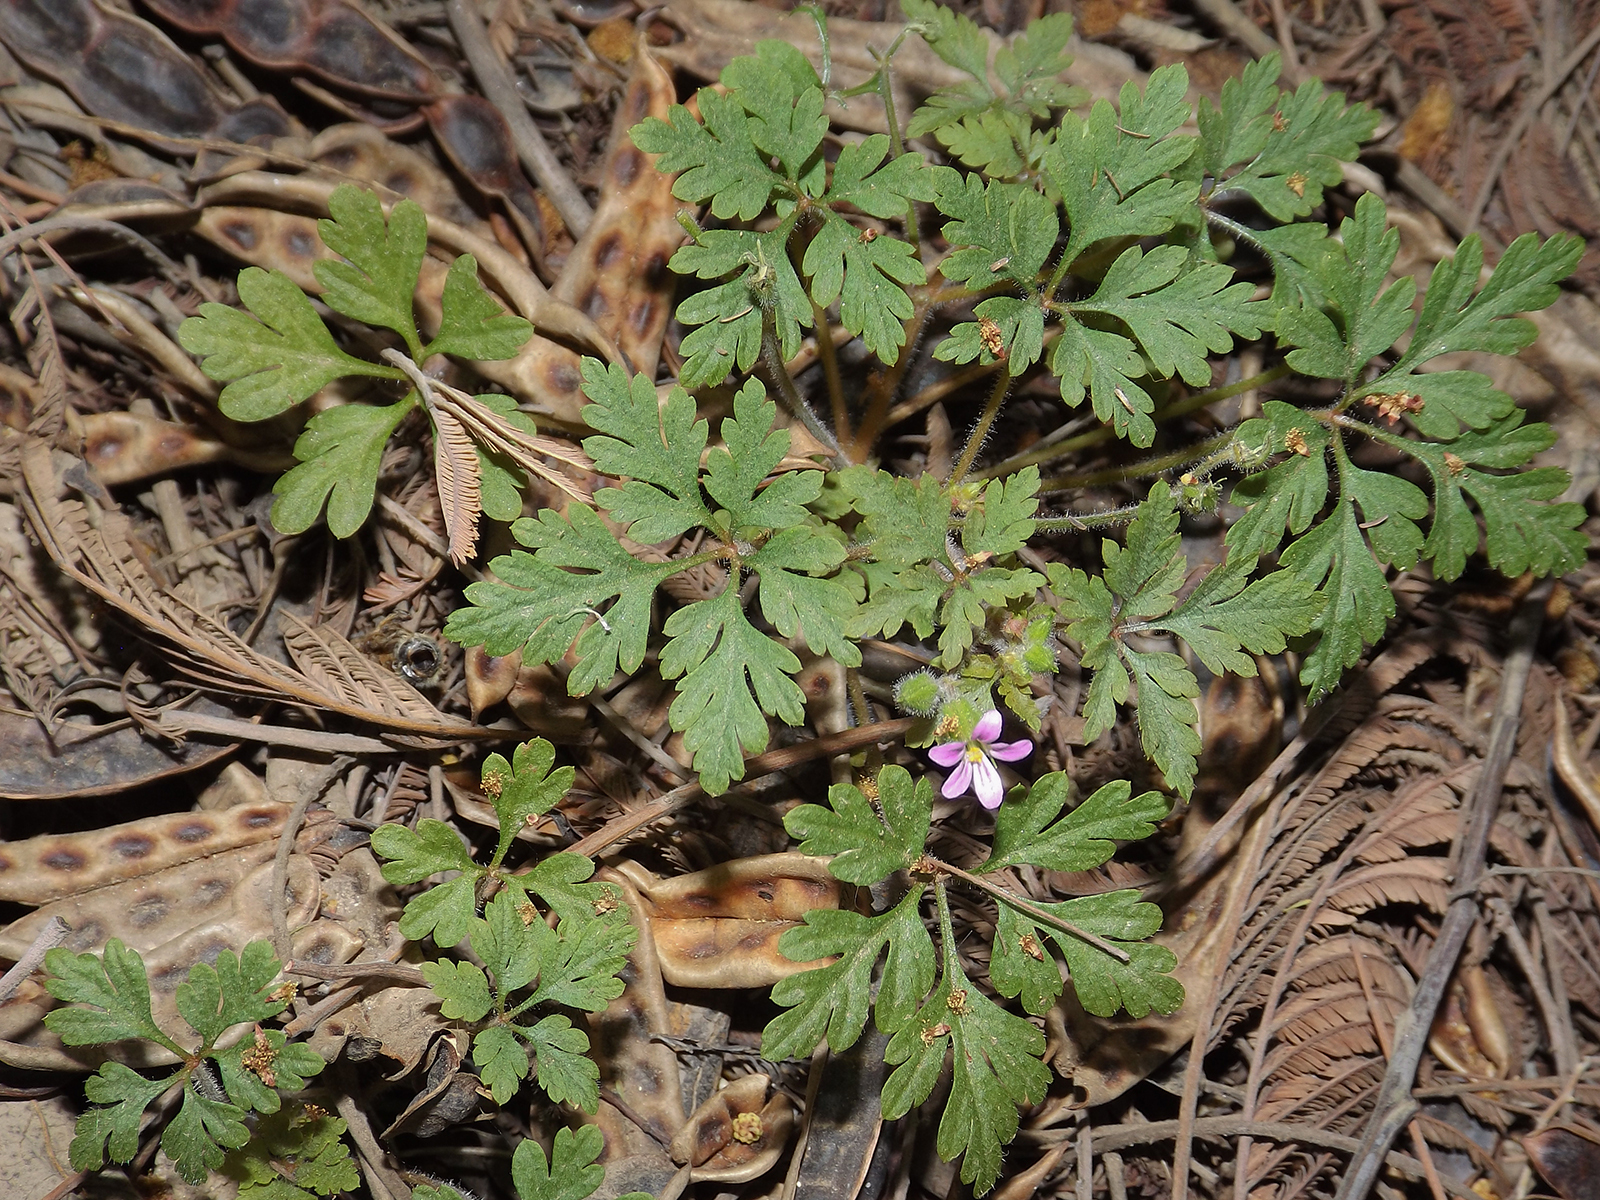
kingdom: Plantae
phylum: Tracheophyta
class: Magnoliopsida
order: Geraniales
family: Geraniaceae
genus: Geranium
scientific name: Geranium robertianum
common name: Herb-robert
